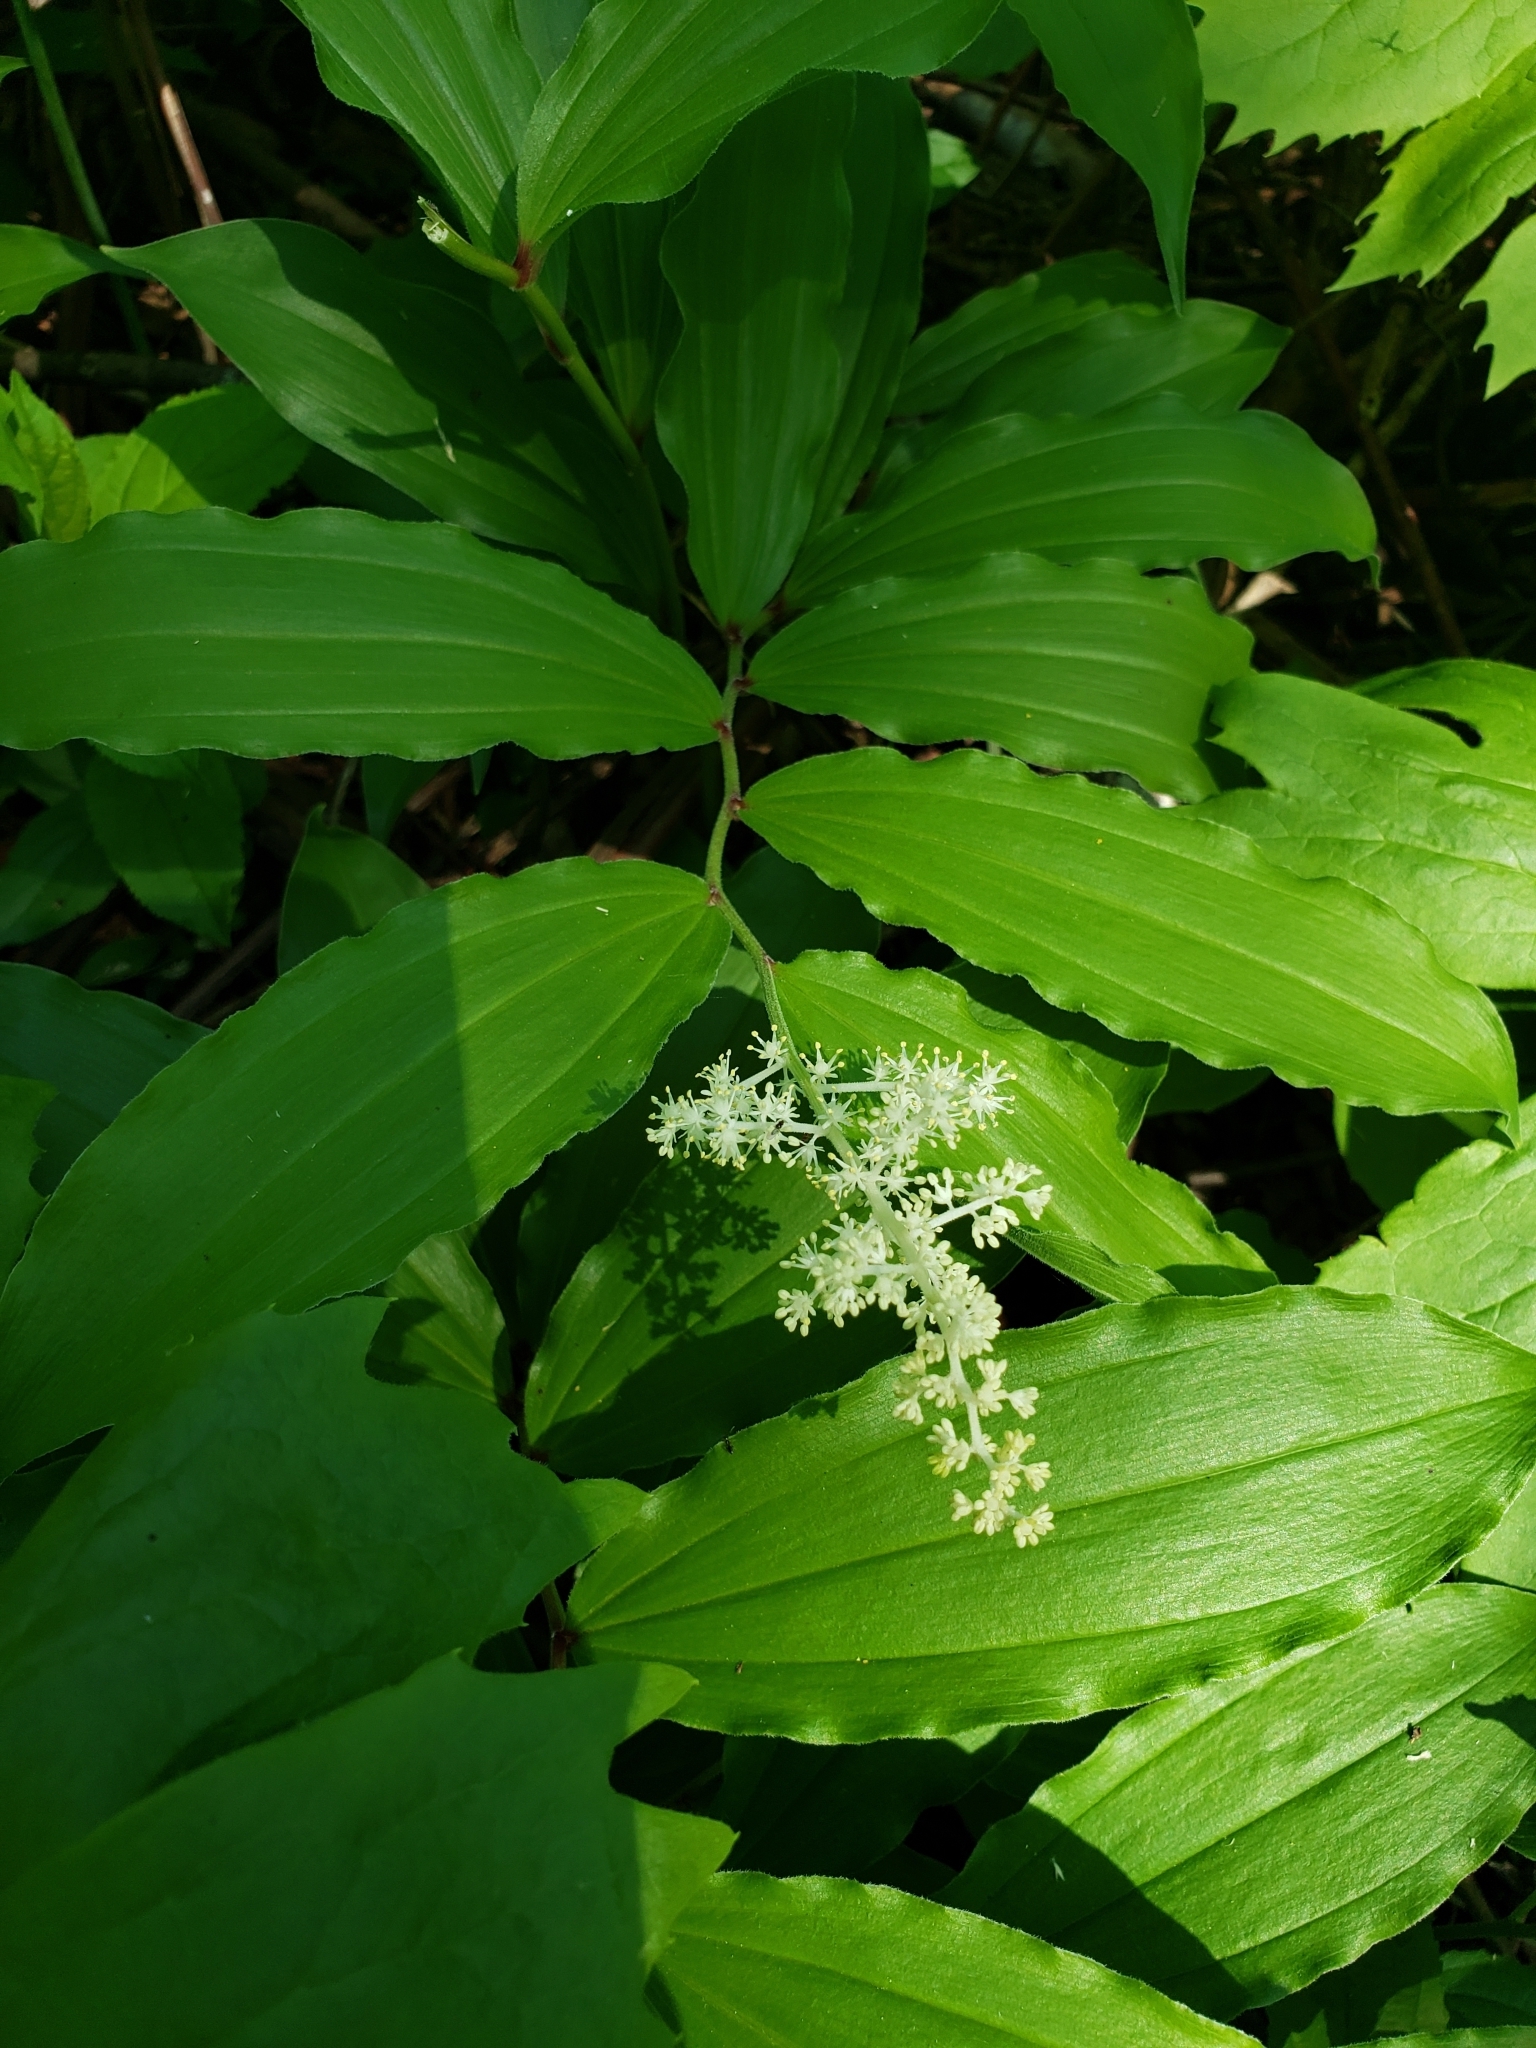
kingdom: Plantae
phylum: Tracheophyta
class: Liliopsida
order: Asparagales
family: Asparagaceae
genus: Maianthemum
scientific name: Maianthemum racemosum
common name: False spikenard
